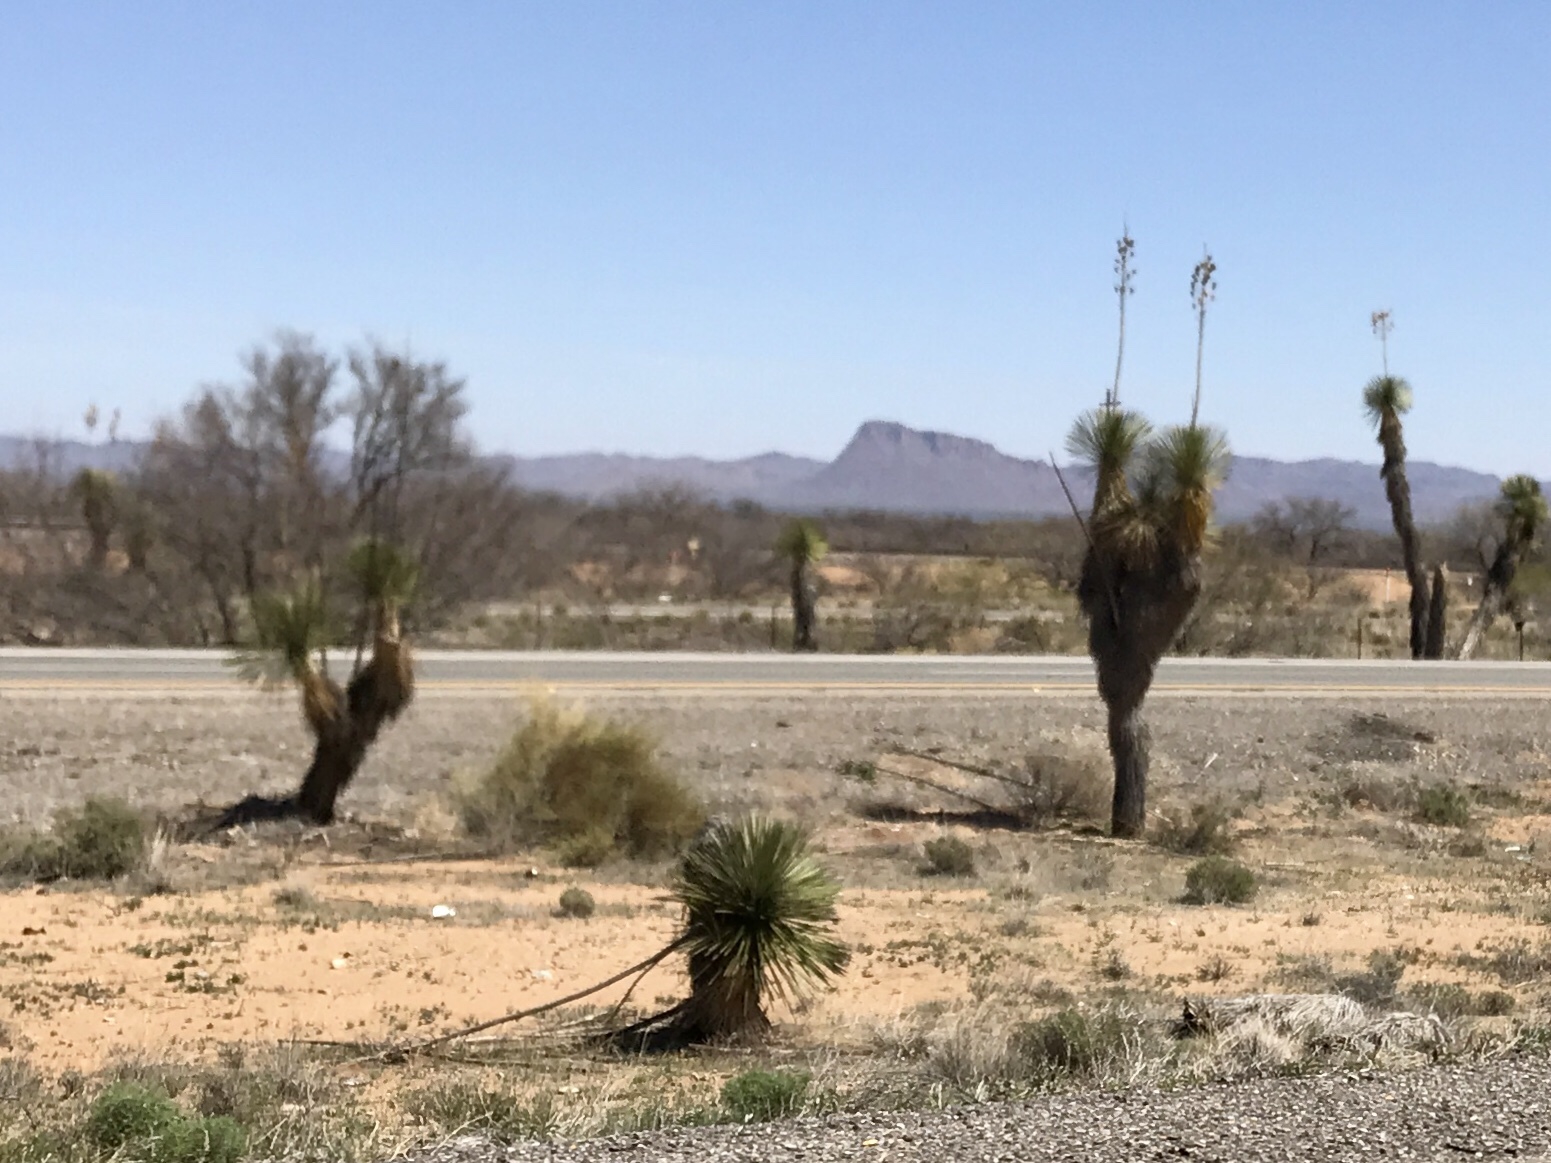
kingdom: Plantae
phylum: Tracheophyta
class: Liliopsida
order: Asparagales
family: Asparagaceae
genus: Yucca
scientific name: Yucca elata
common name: Palmella
